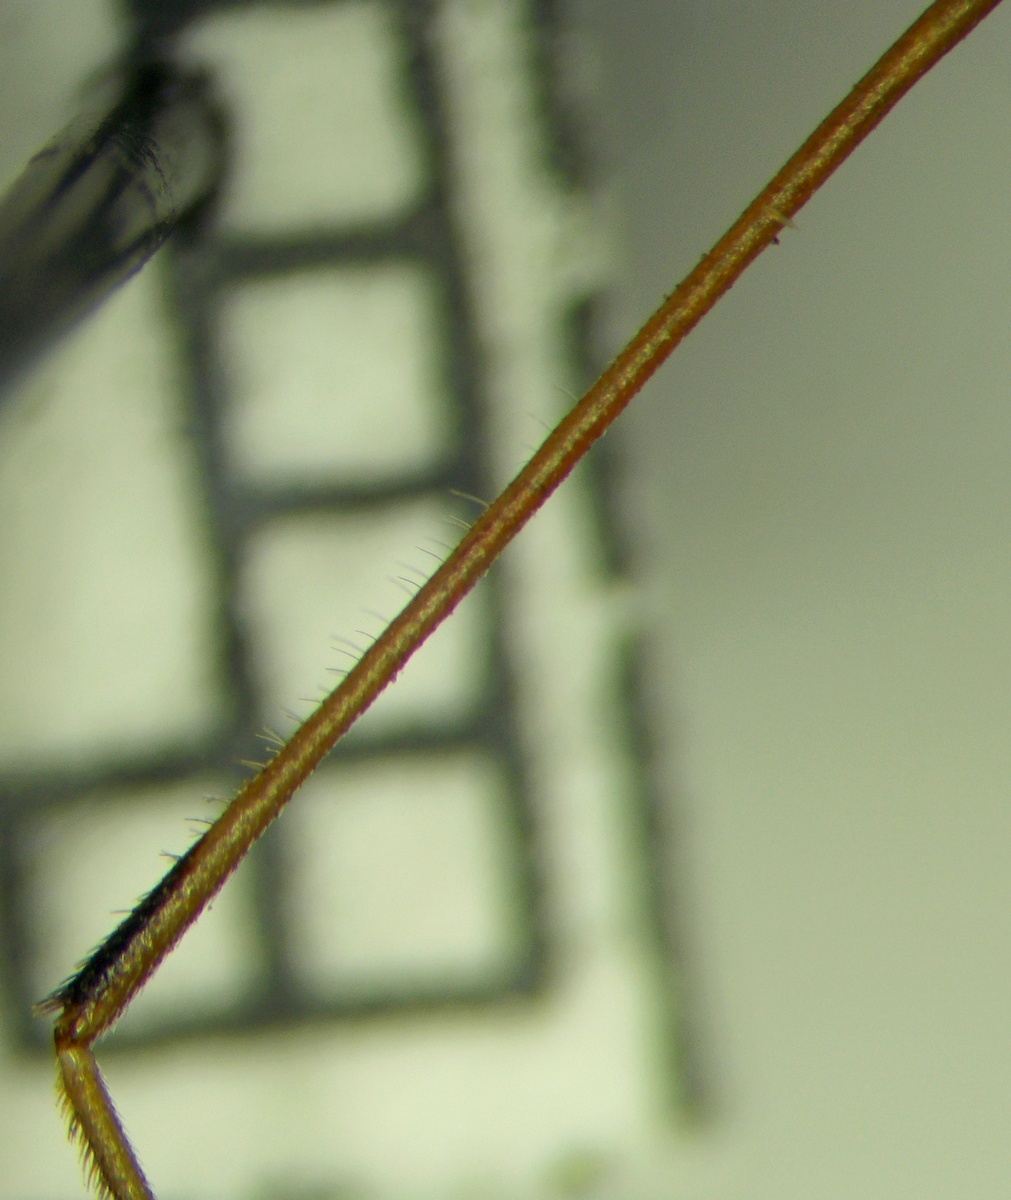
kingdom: Animalia
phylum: Arthropoda
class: Insecta
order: Hemiptera
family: Rhopalidae
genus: Chorosoma
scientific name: Chorosoma schillingii
